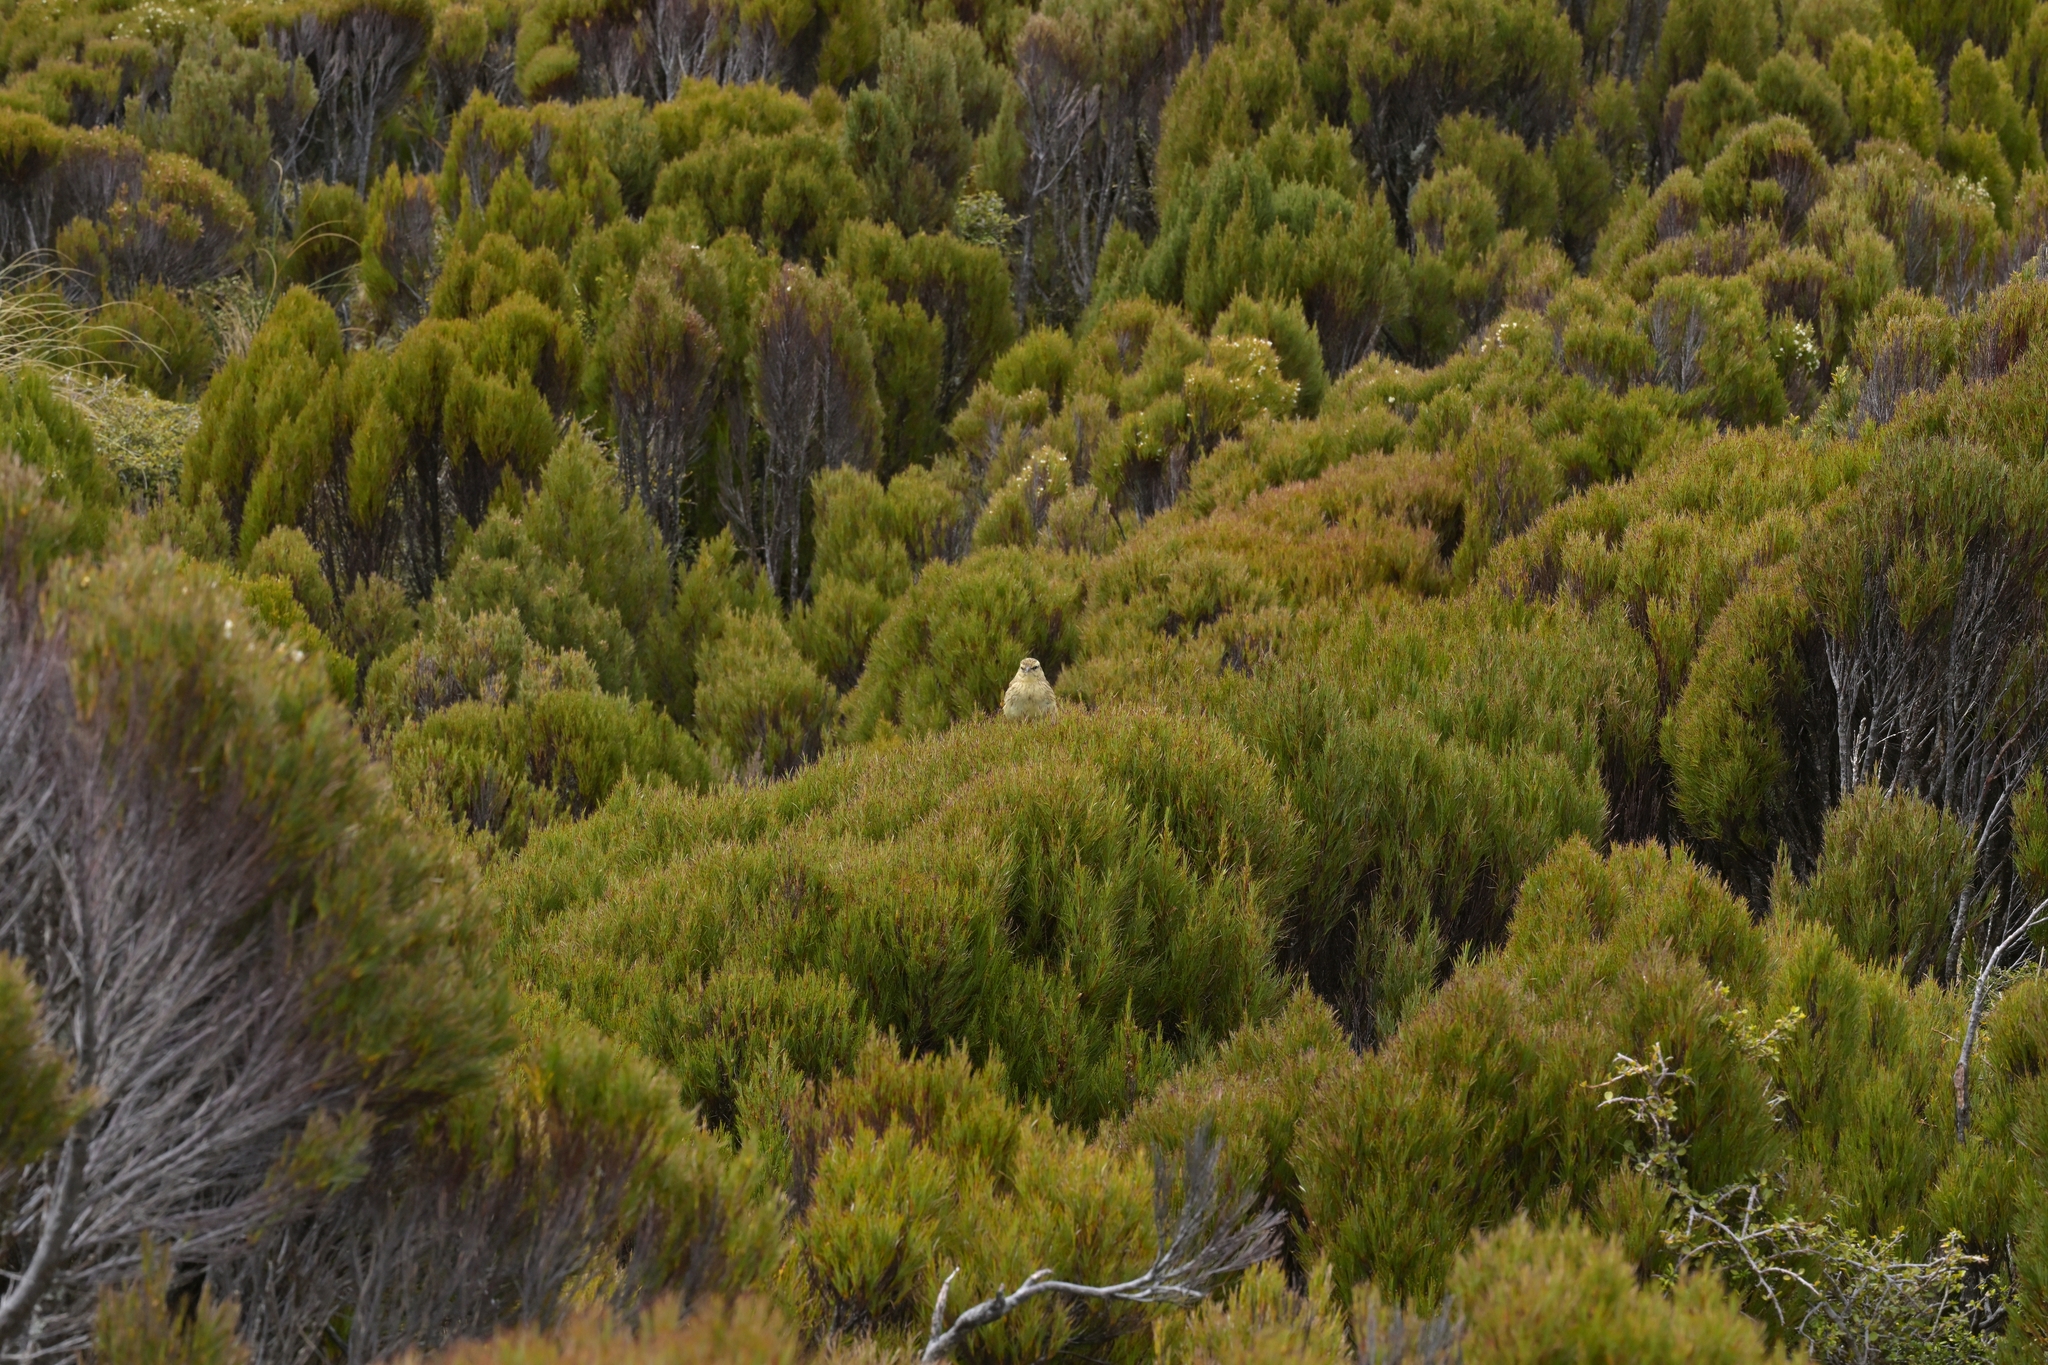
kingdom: Animalia
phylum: Chordata
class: Aves
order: Passeriformes
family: Motacillidae
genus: Anthus
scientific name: Anthus novaeseelandiae
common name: New zealand pipit
